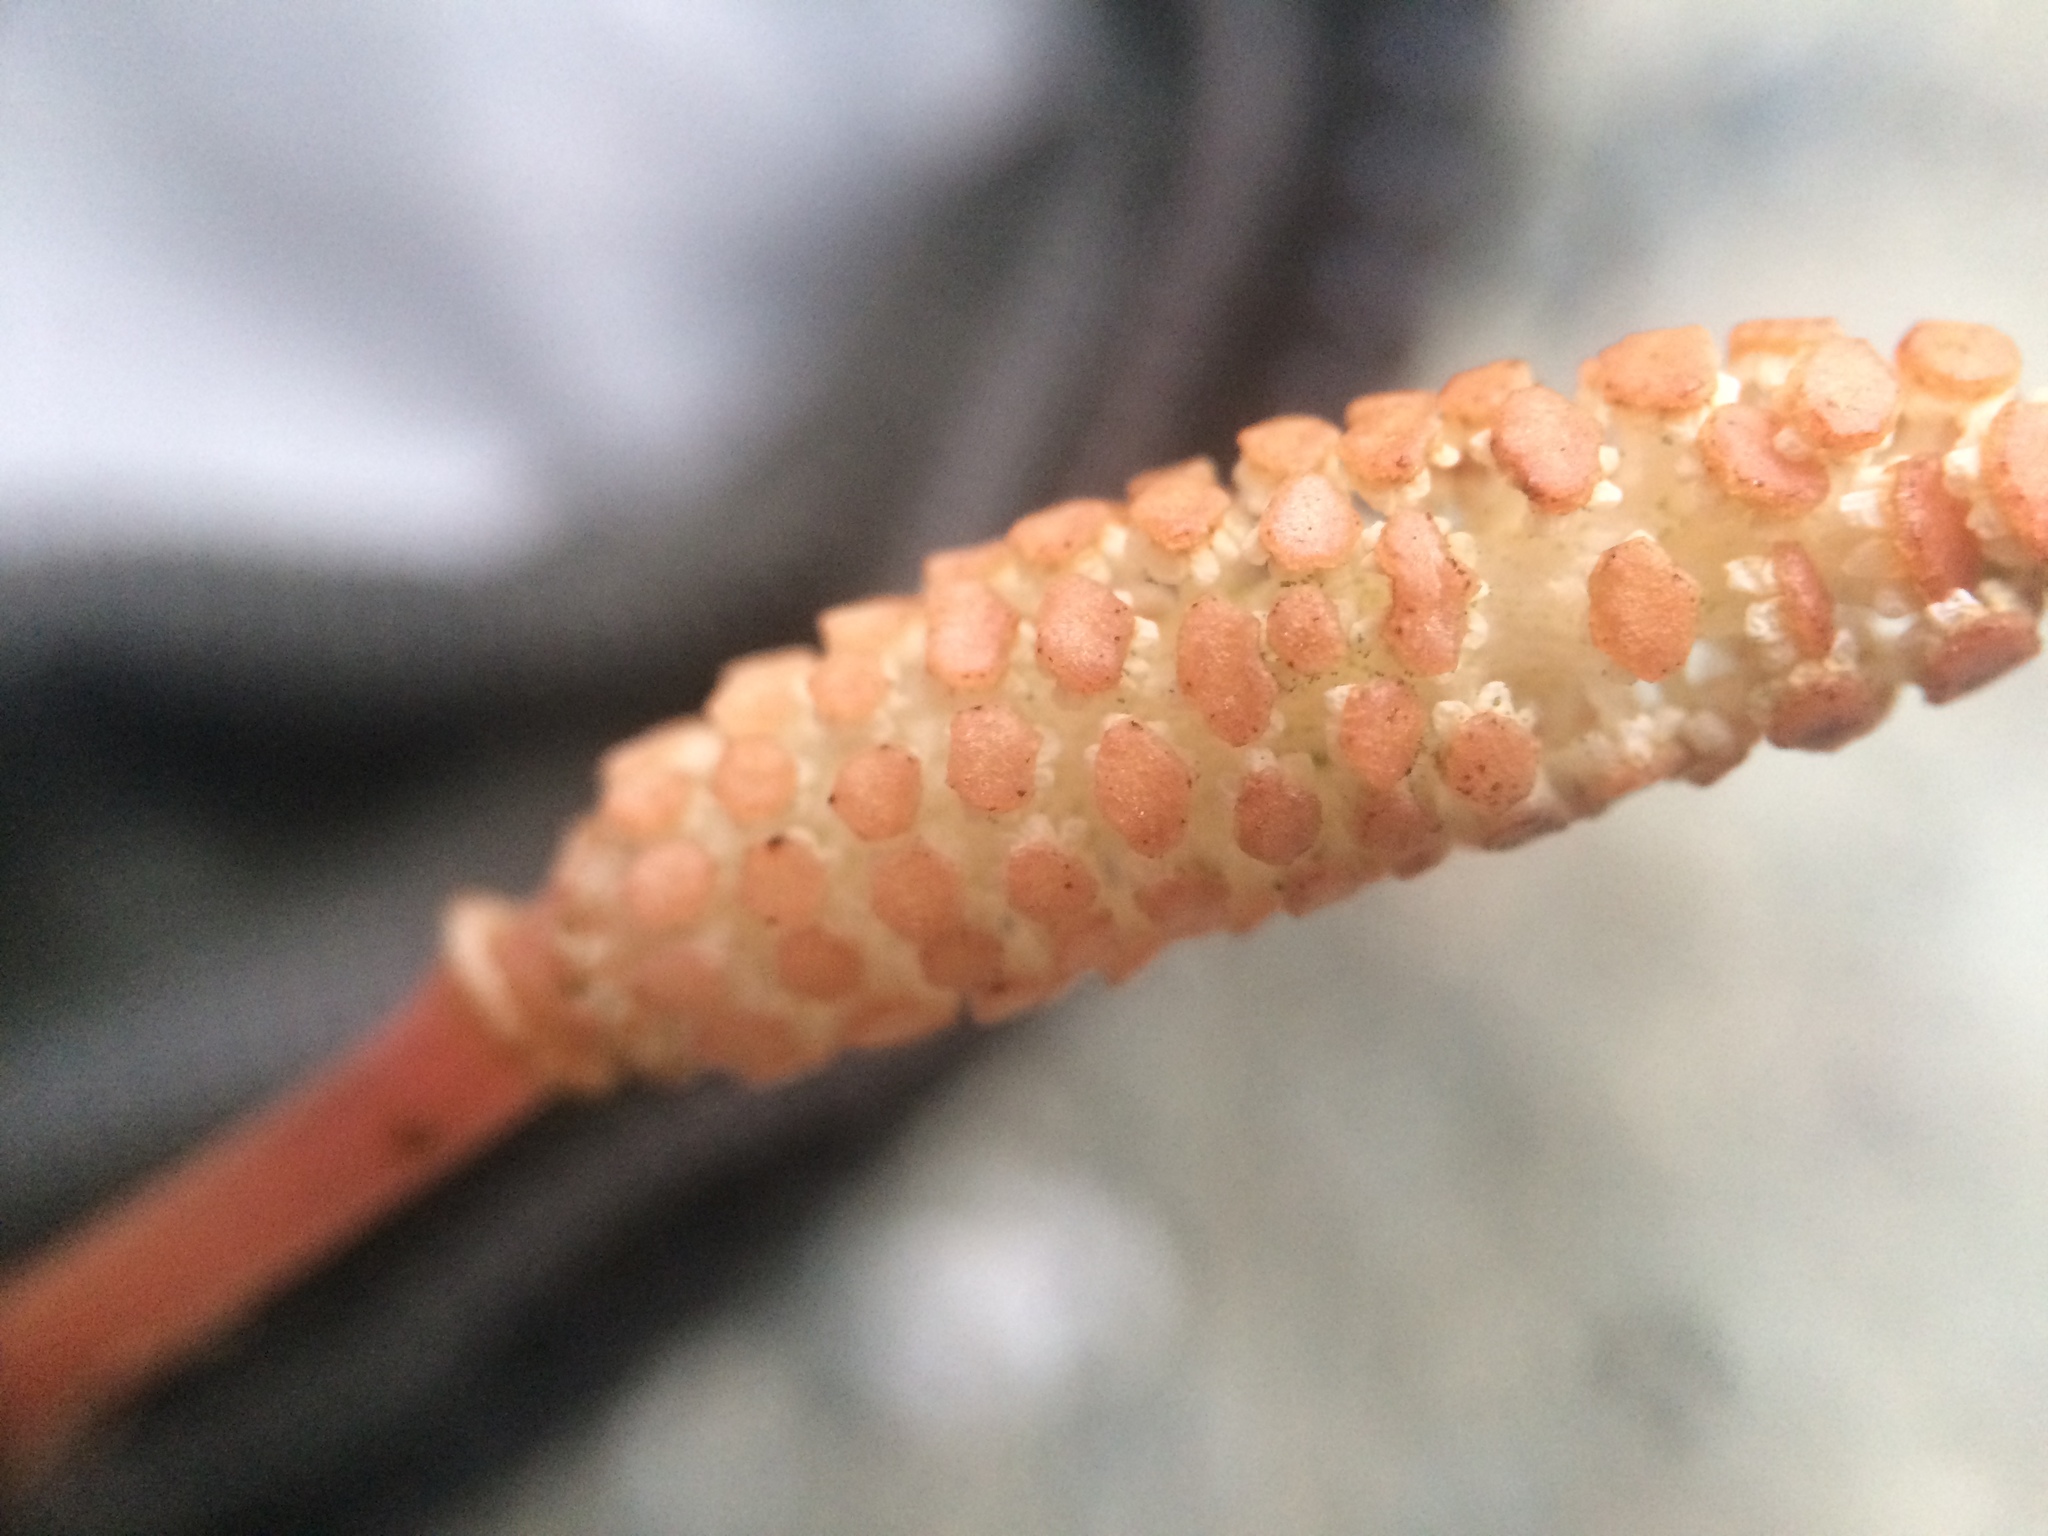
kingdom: Plantae
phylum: Tracheophyta
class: Polypodiopsida
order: Equisetales
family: Equisetaceae
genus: Equisetum
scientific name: Equisetum pratense
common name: Meadow horsetail
